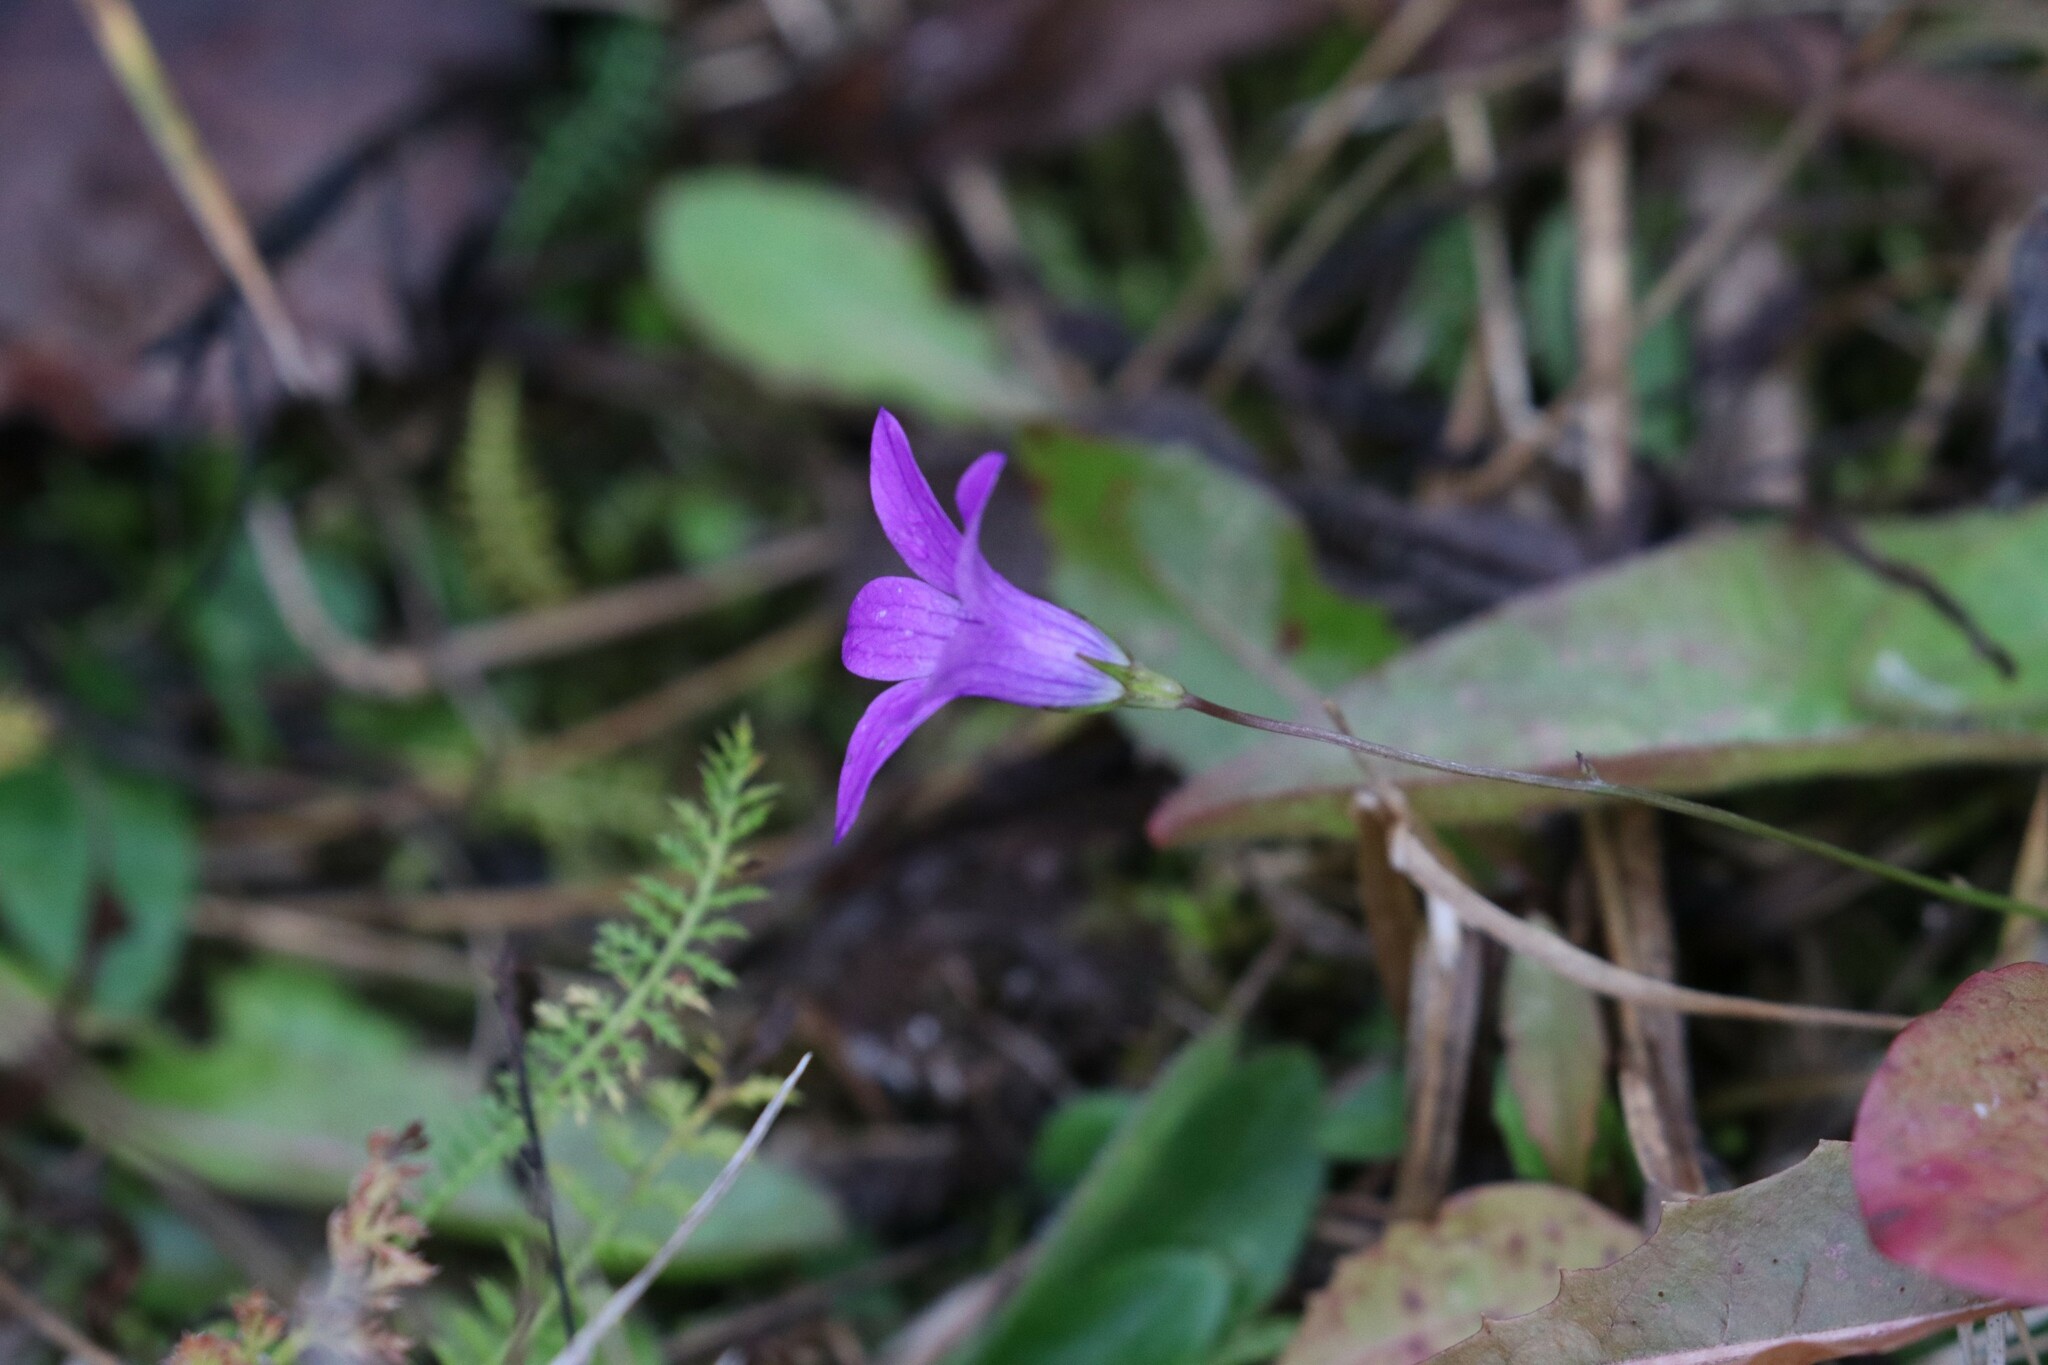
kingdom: Plantae
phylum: Tracheophyta
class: Magnoliopsida
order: Asterales
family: Campanulaceae
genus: Campanula
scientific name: Campanula patula
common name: Spreading bellflower
